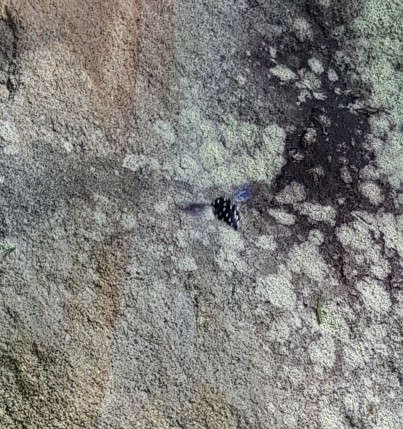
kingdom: Animalia
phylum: Arthropoda
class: Insecta
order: Hymenoptera
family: Apidae
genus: Thyreus
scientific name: Thyreus lugubris
